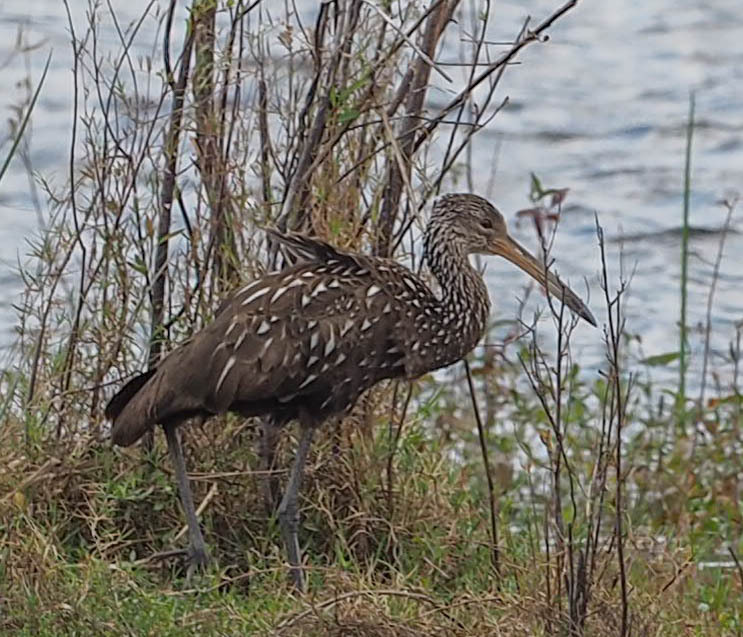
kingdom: Animalia
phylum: Chordata
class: Aves
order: Gruiformes
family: Aramidae
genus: Aramus
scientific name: Aramus guarauna
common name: Limpkin
